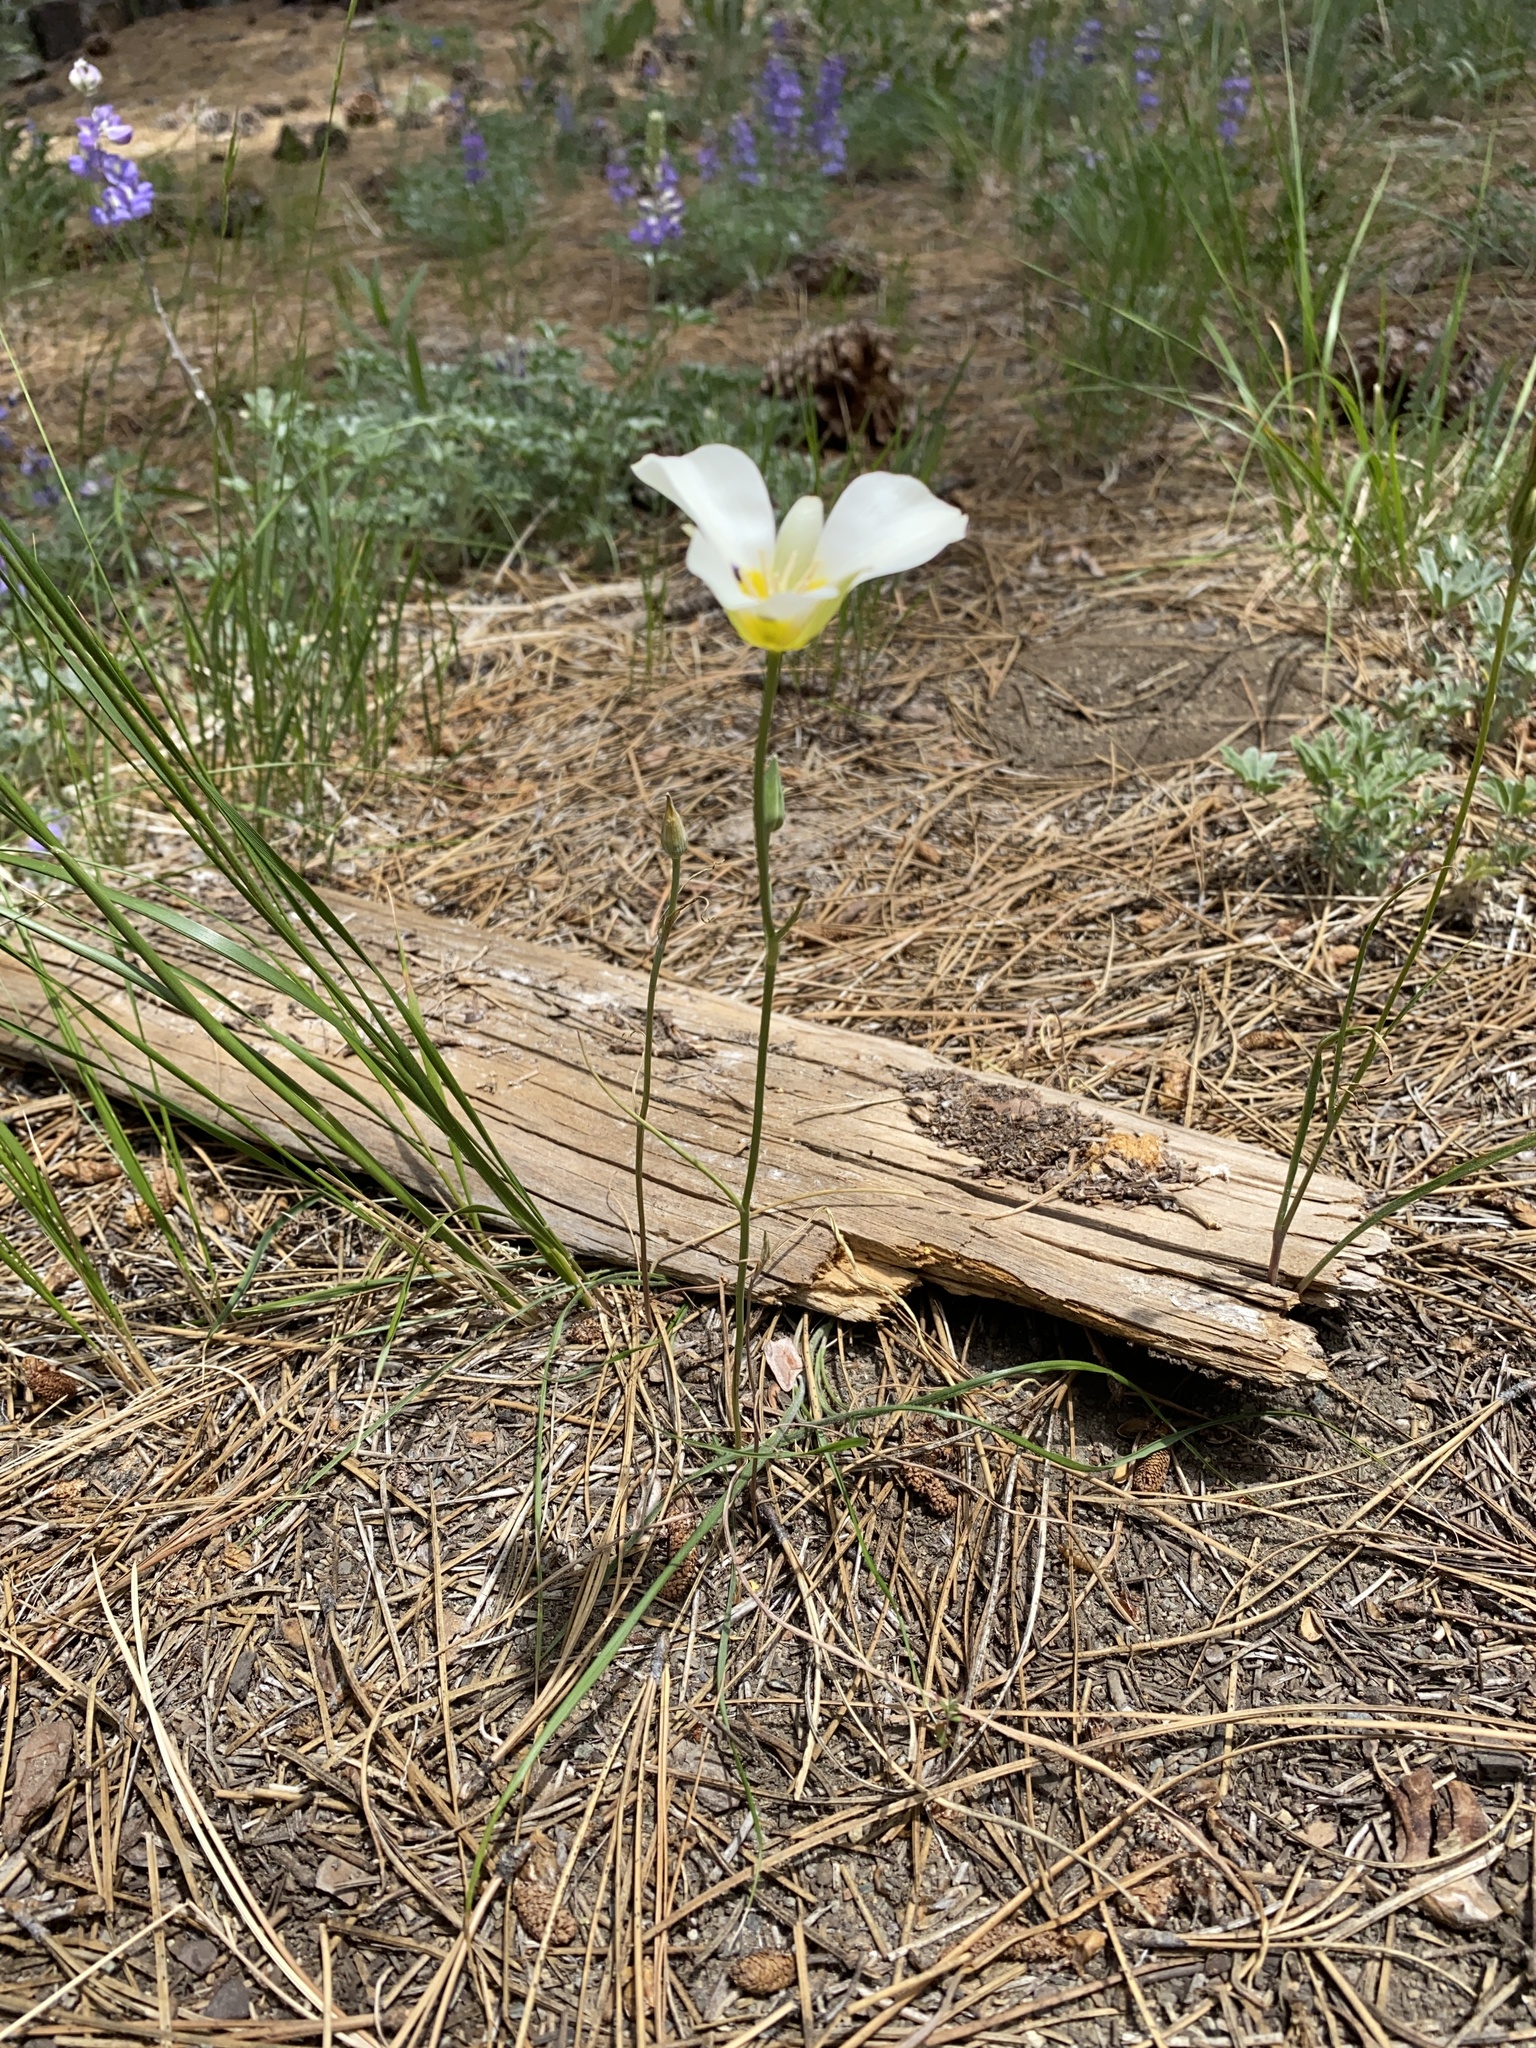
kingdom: Plantae
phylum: Tracheophyta
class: Liliopsida
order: Liliales
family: Liliaceae
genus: Calochortus
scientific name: Calochortus leichtlinii
